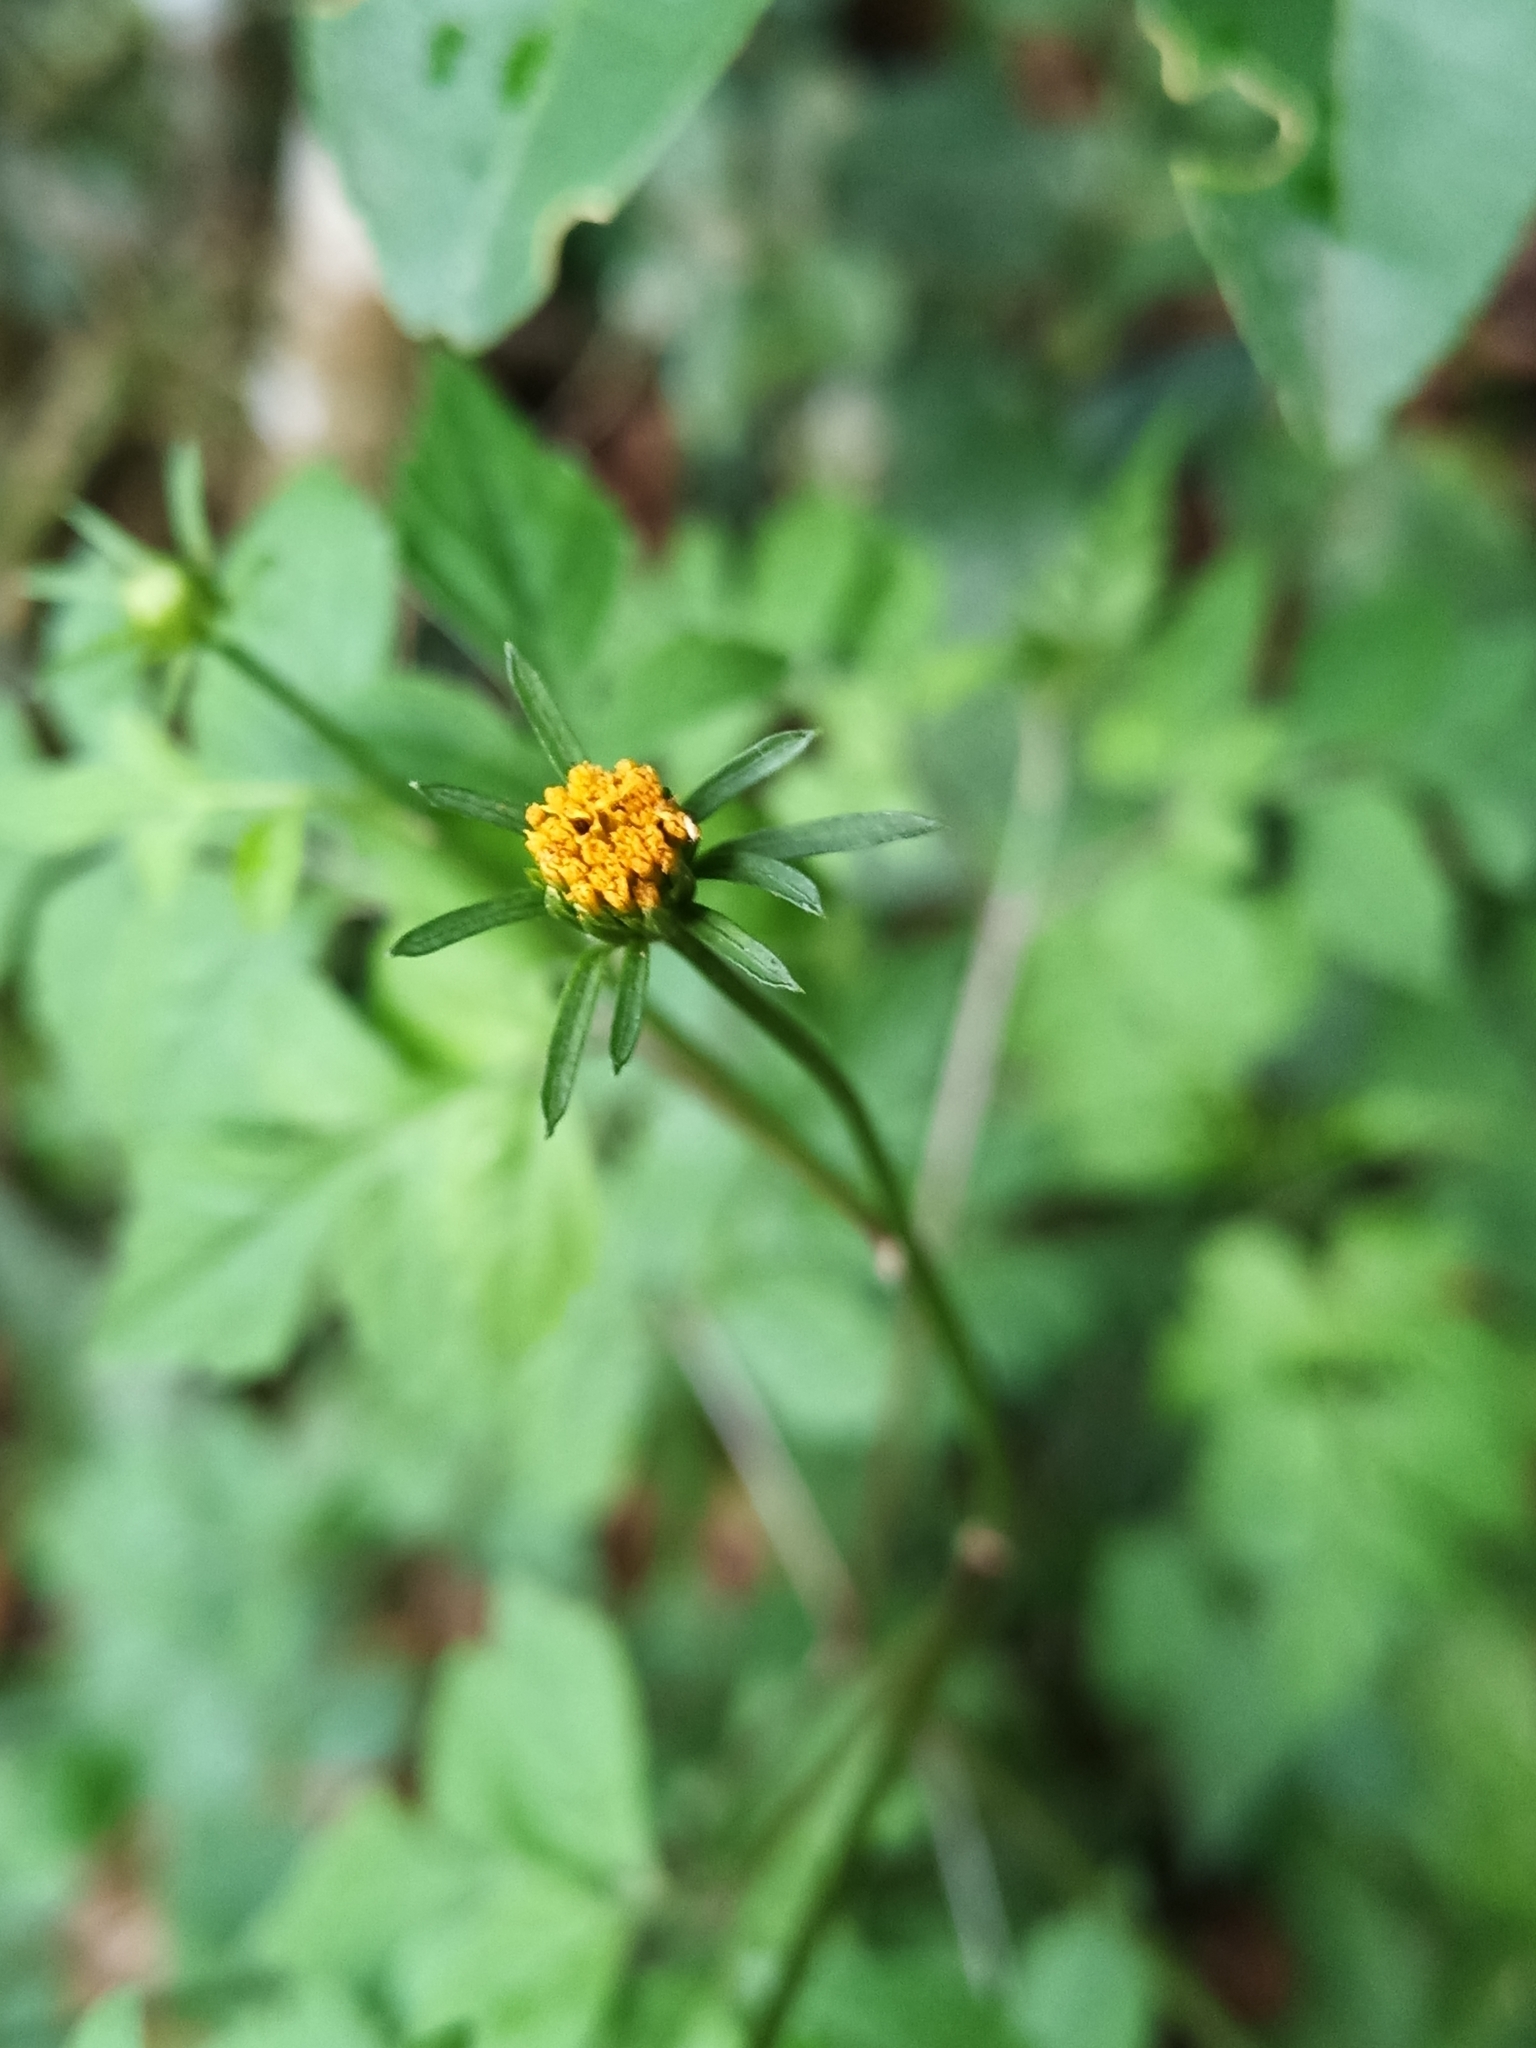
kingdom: Plantae
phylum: Tracheophyta
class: Magnoliopsida
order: Asterales
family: Asteraceae
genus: Bidens
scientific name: Bidens cynapiifolia
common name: Beggar's tick
